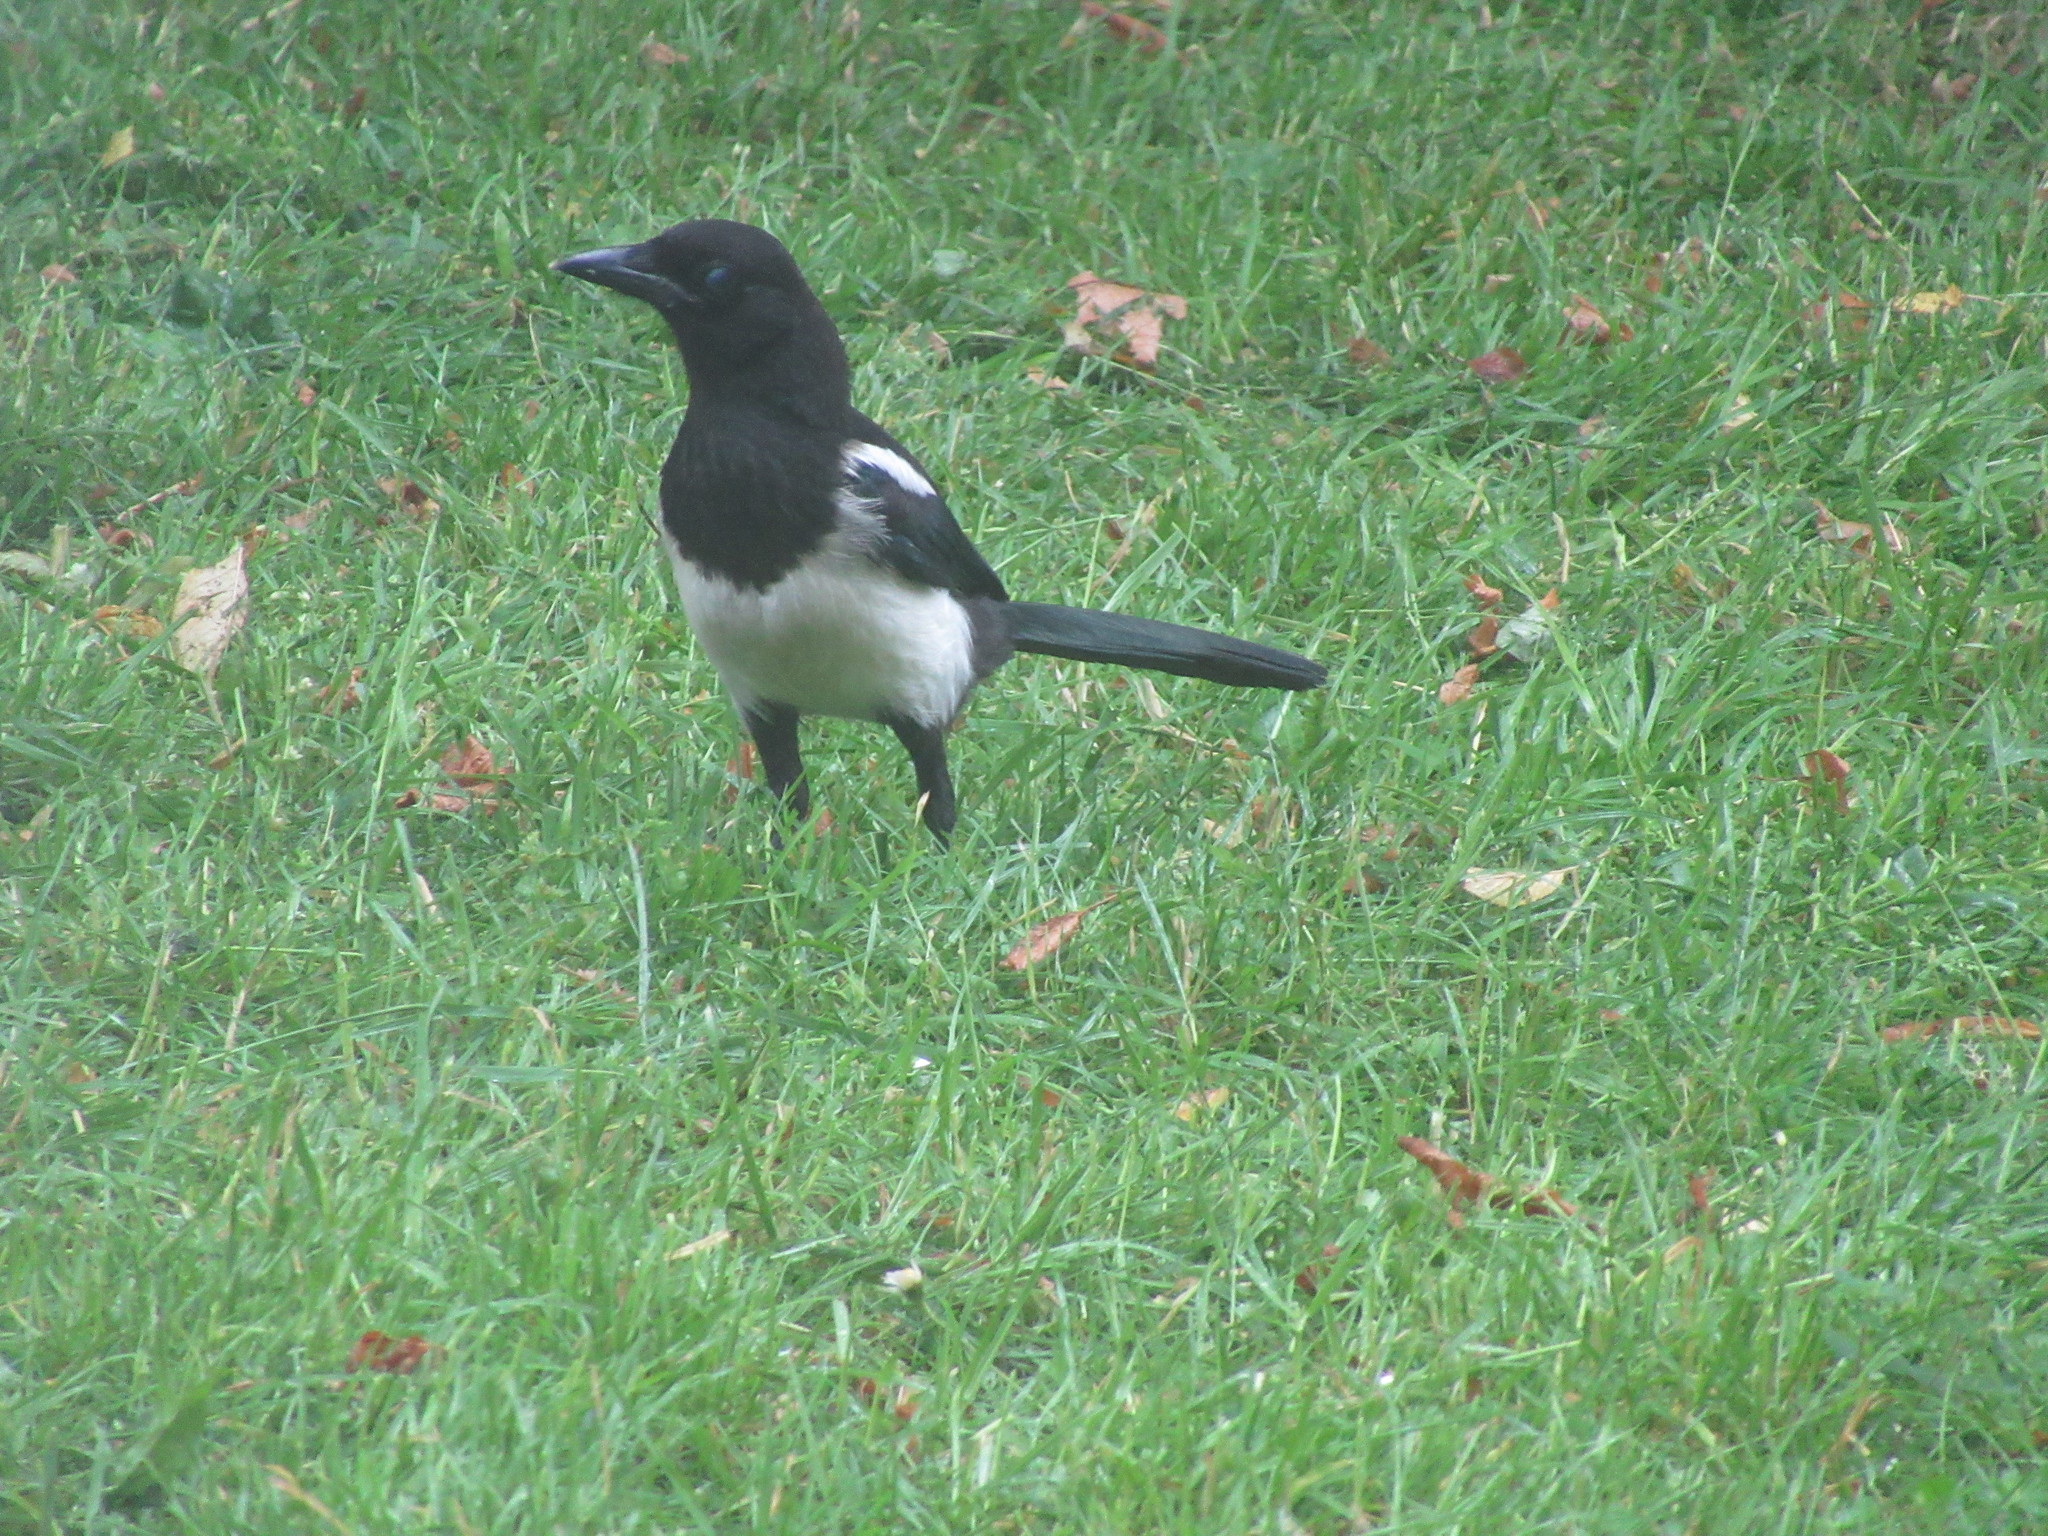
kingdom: Animalia
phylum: Chordata
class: Aves
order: Passeriformes
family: Corvidae
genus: Pica
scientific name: Pica pica
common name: Eurasian magpie
